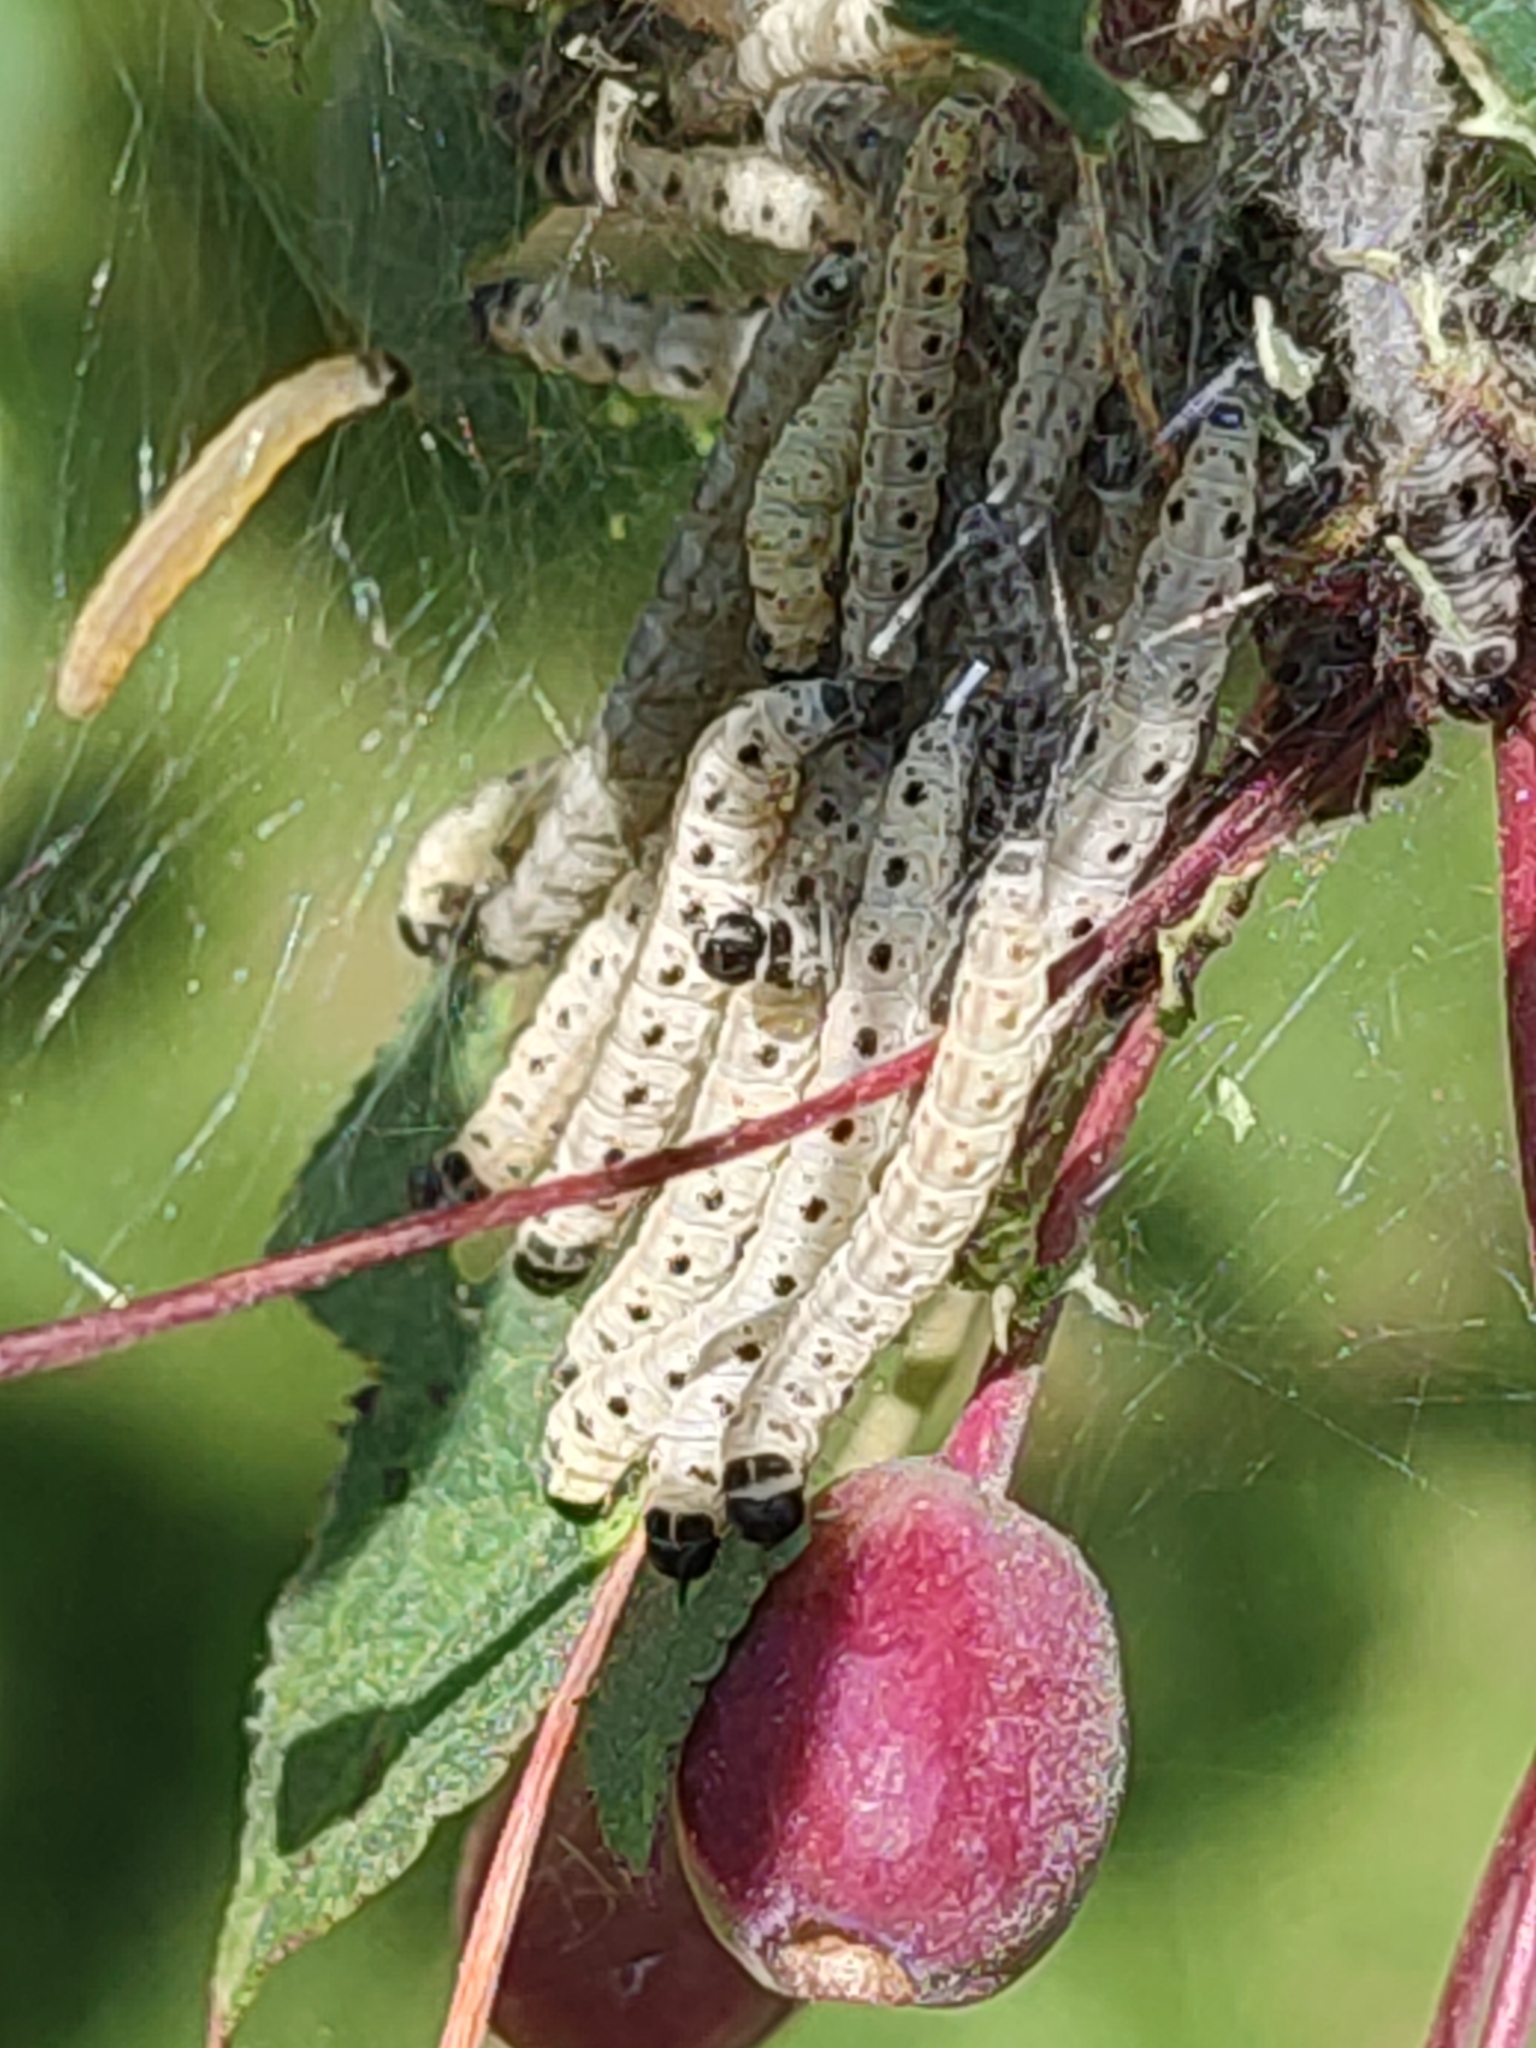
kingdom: Animalia
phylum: Arthropoda
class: Insecta
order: Lepidoptera
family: Yponomeutidae
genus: Yponomeuta
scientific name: Yponomeuta padella
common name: Orchard ermine
